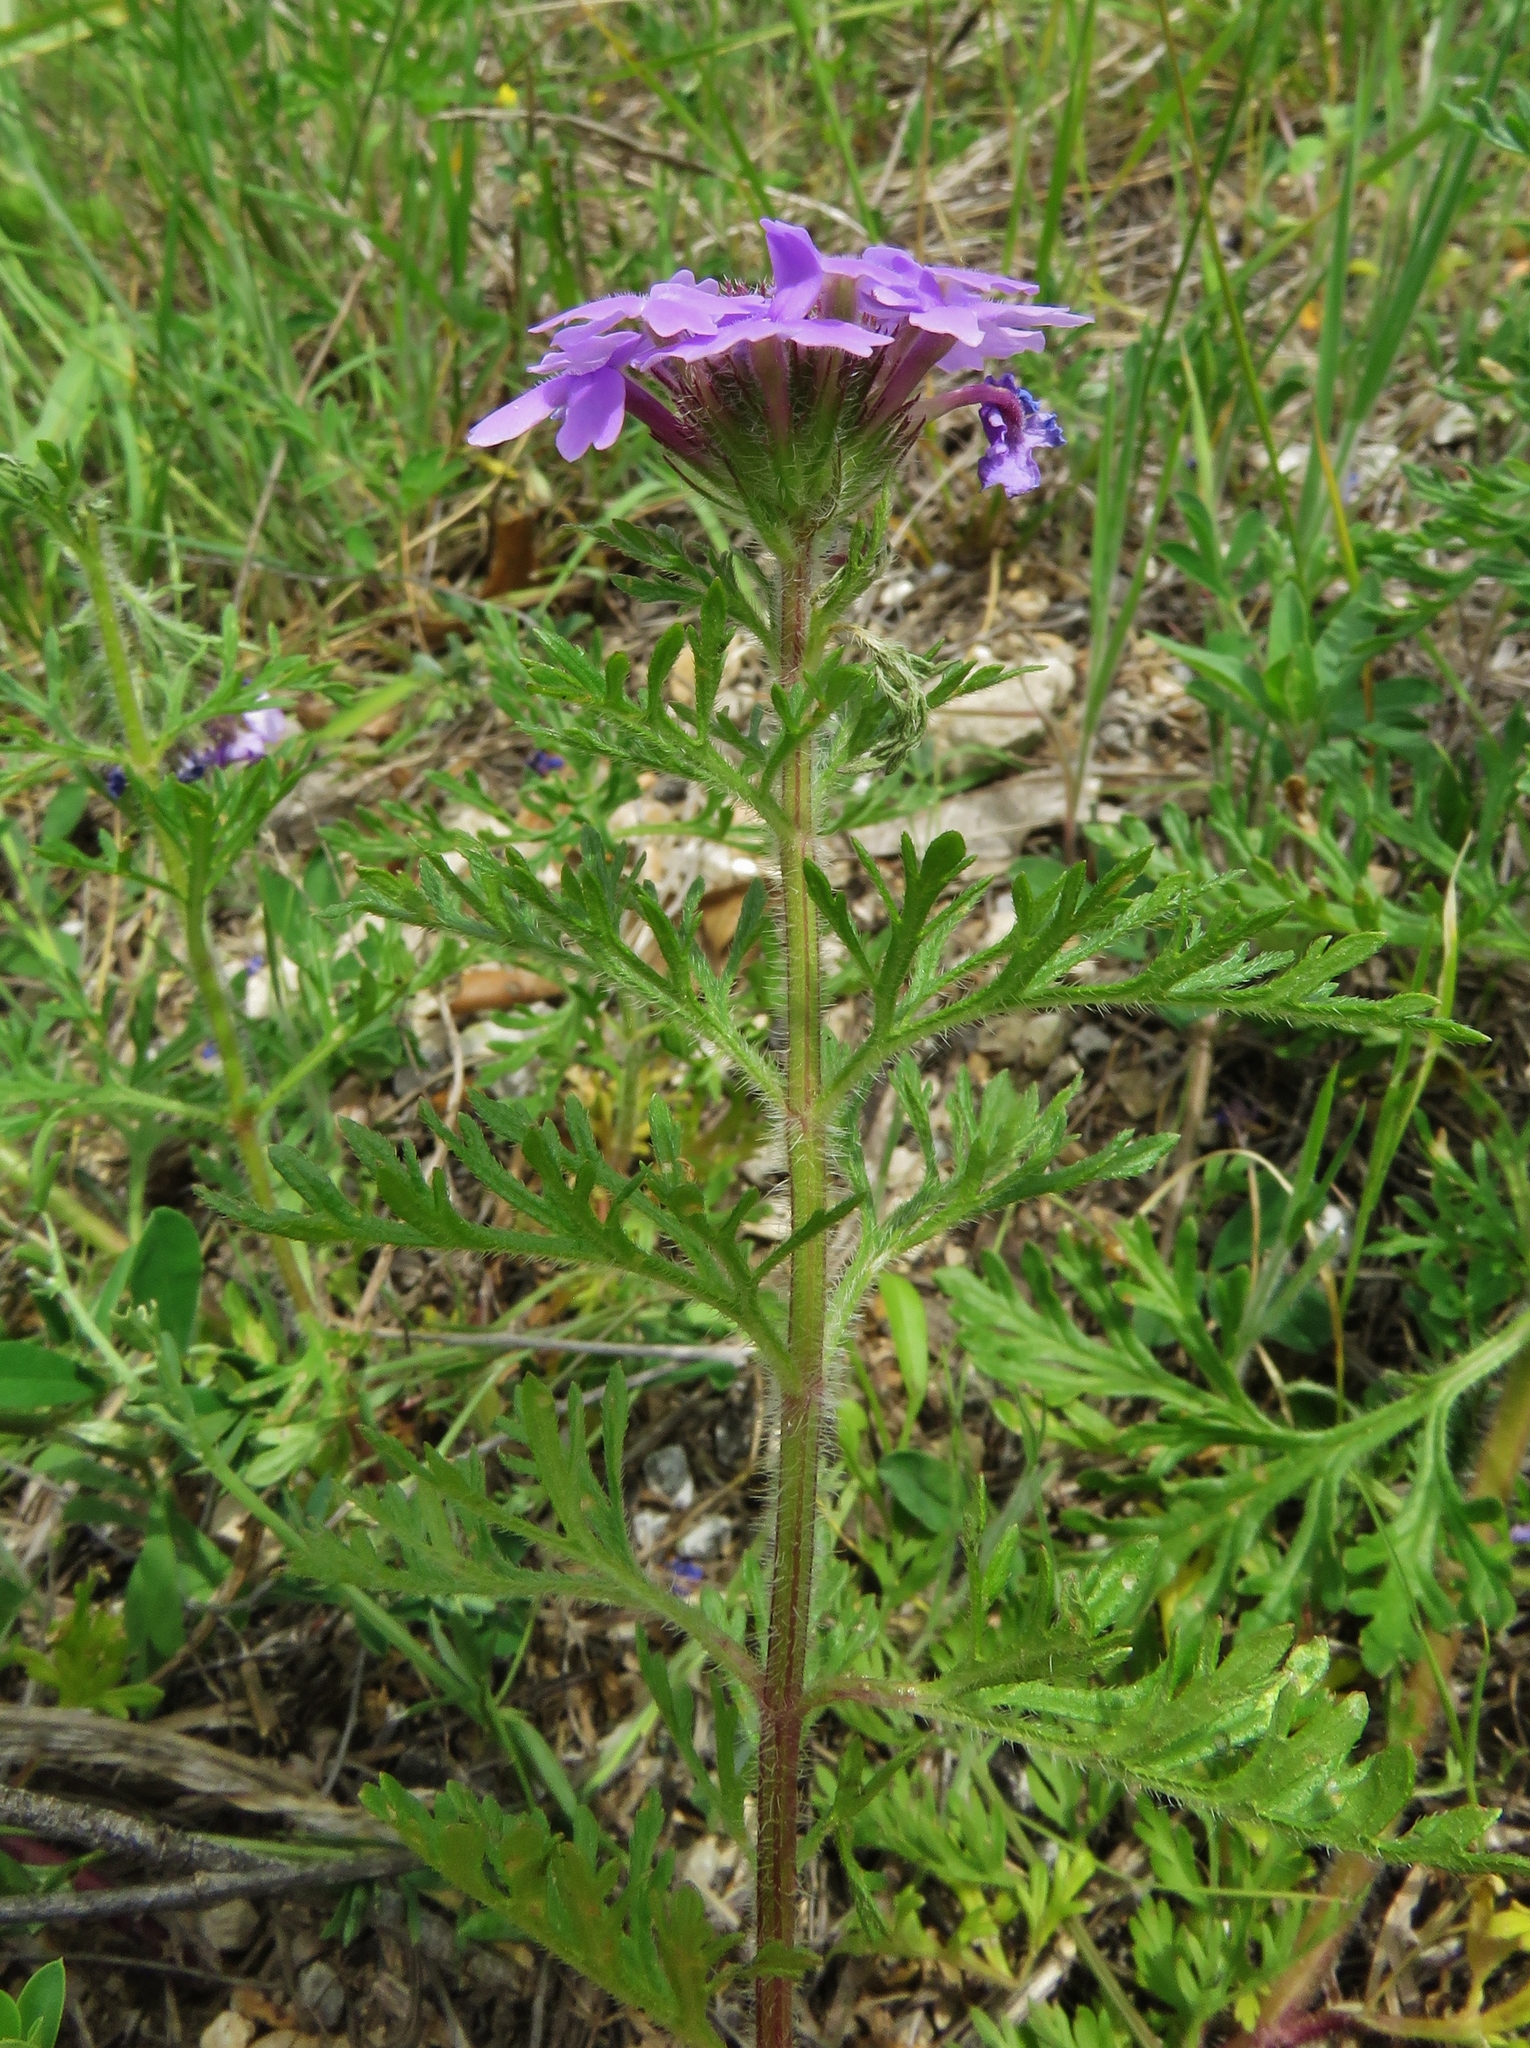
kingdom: Plantae
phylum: Tracheophyta
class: Magnoliopsida
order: Lamiales
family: Verbenaceae
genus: Verbena
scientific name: Verbena bipinnatifida
